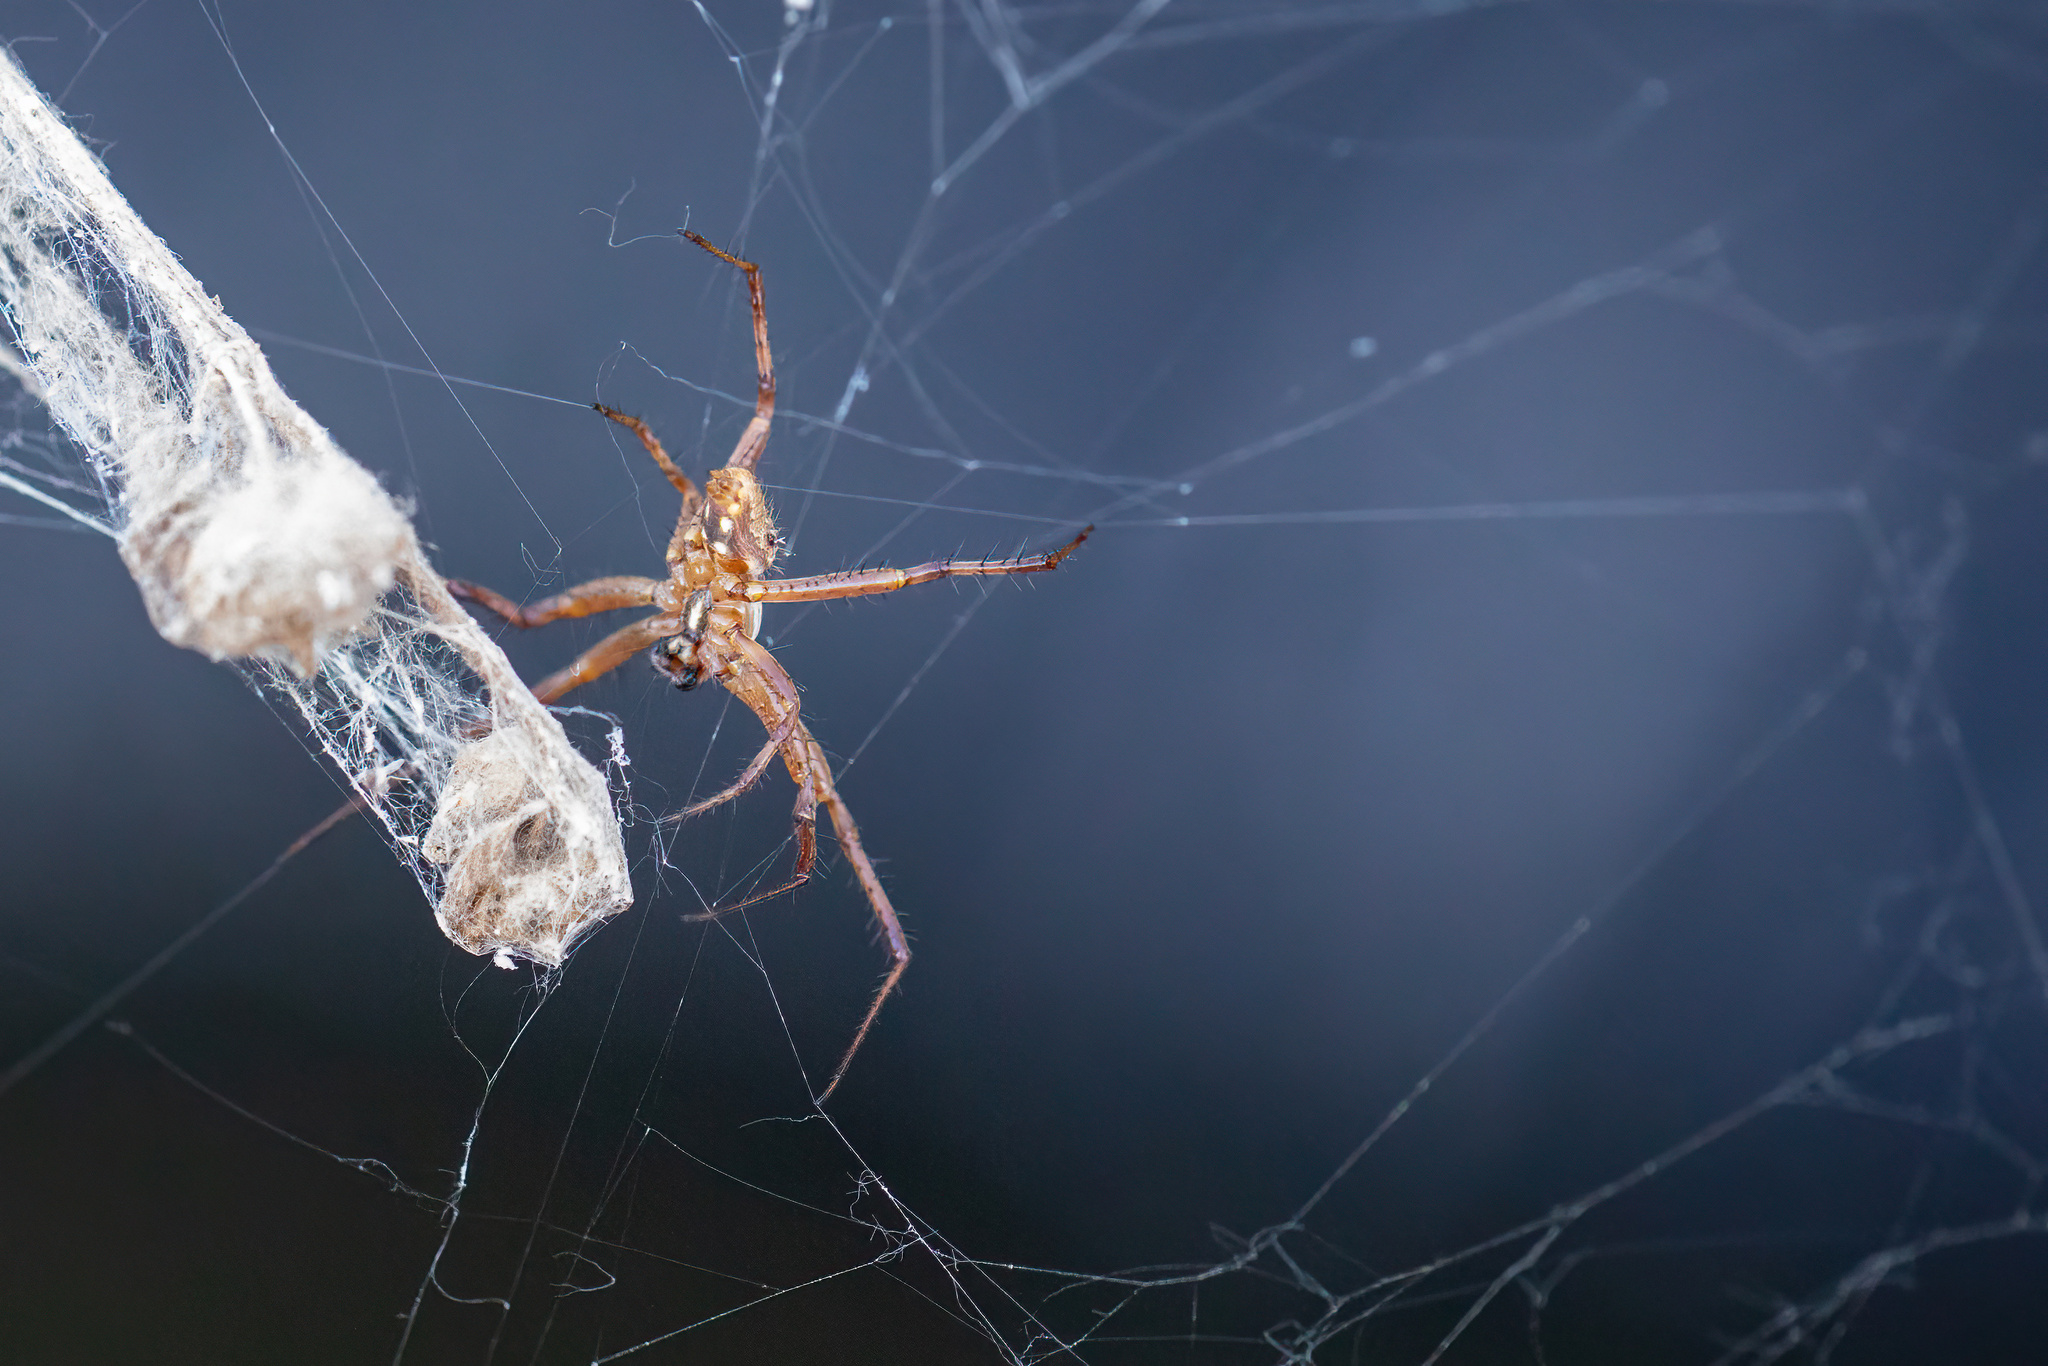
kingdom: Animalia
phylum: Arthropoda
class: Arachnida
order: Araneae
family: Araneidae
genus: Neoscona
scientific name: Neoscona oaxacensis
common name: Orb weavers
